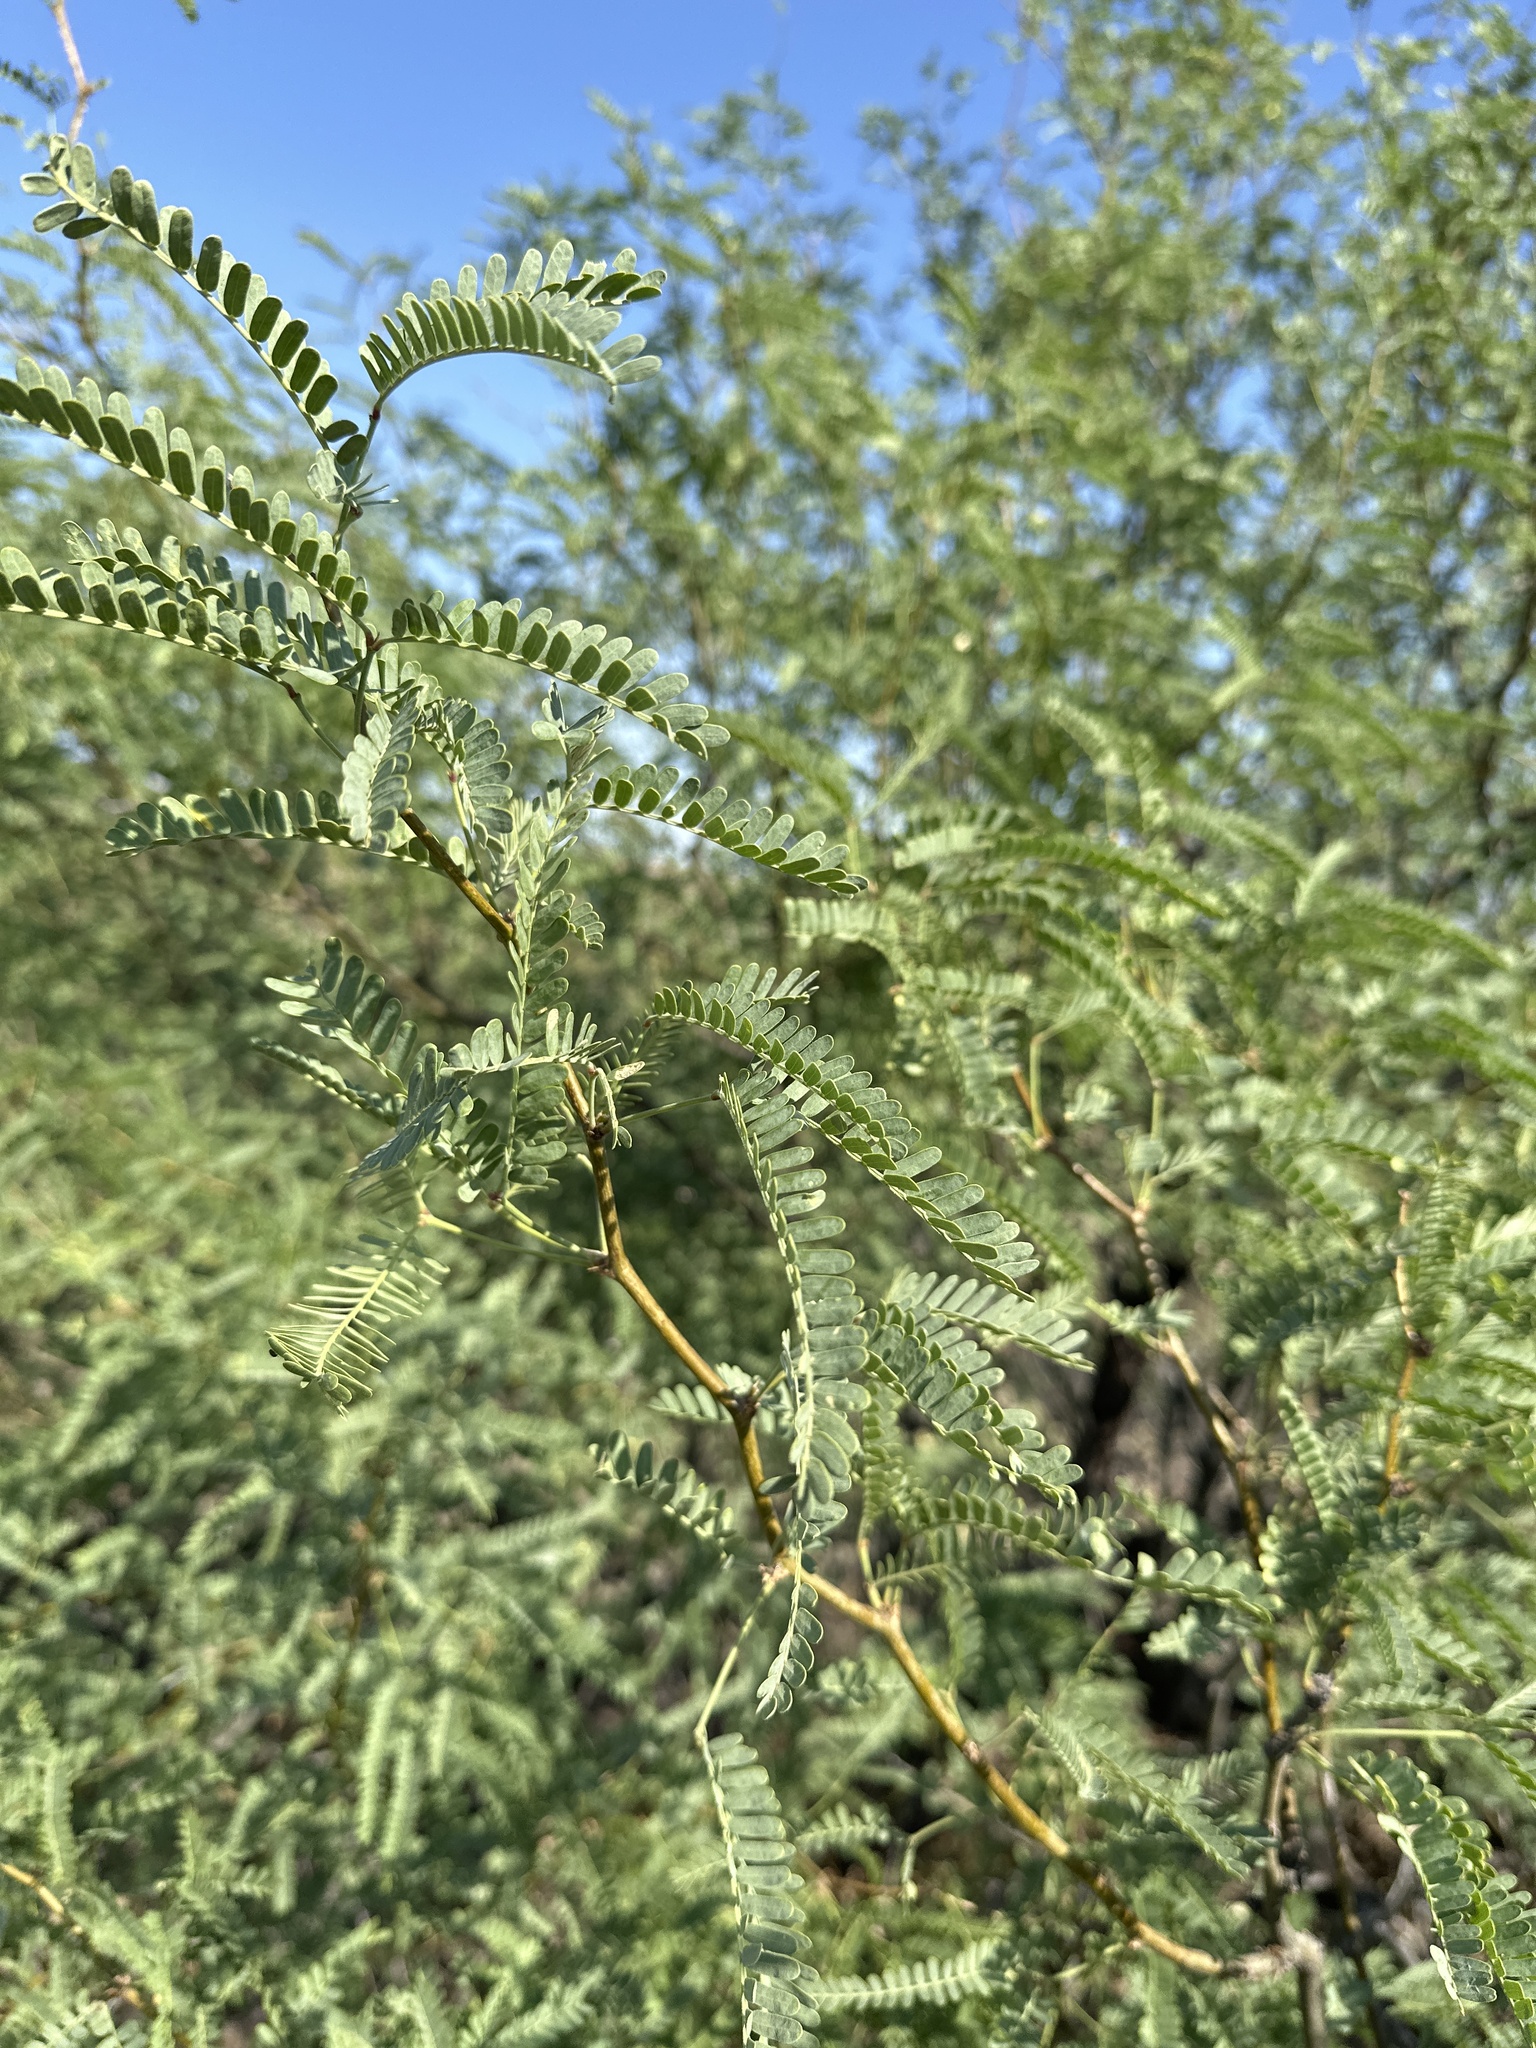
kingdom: Plantae
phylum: Tracheophyta
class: Magnoliopsida
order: Fabales
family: Fabaceae
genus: Prosopis
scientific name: Prosopis velutina
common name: Velvet mesquite
